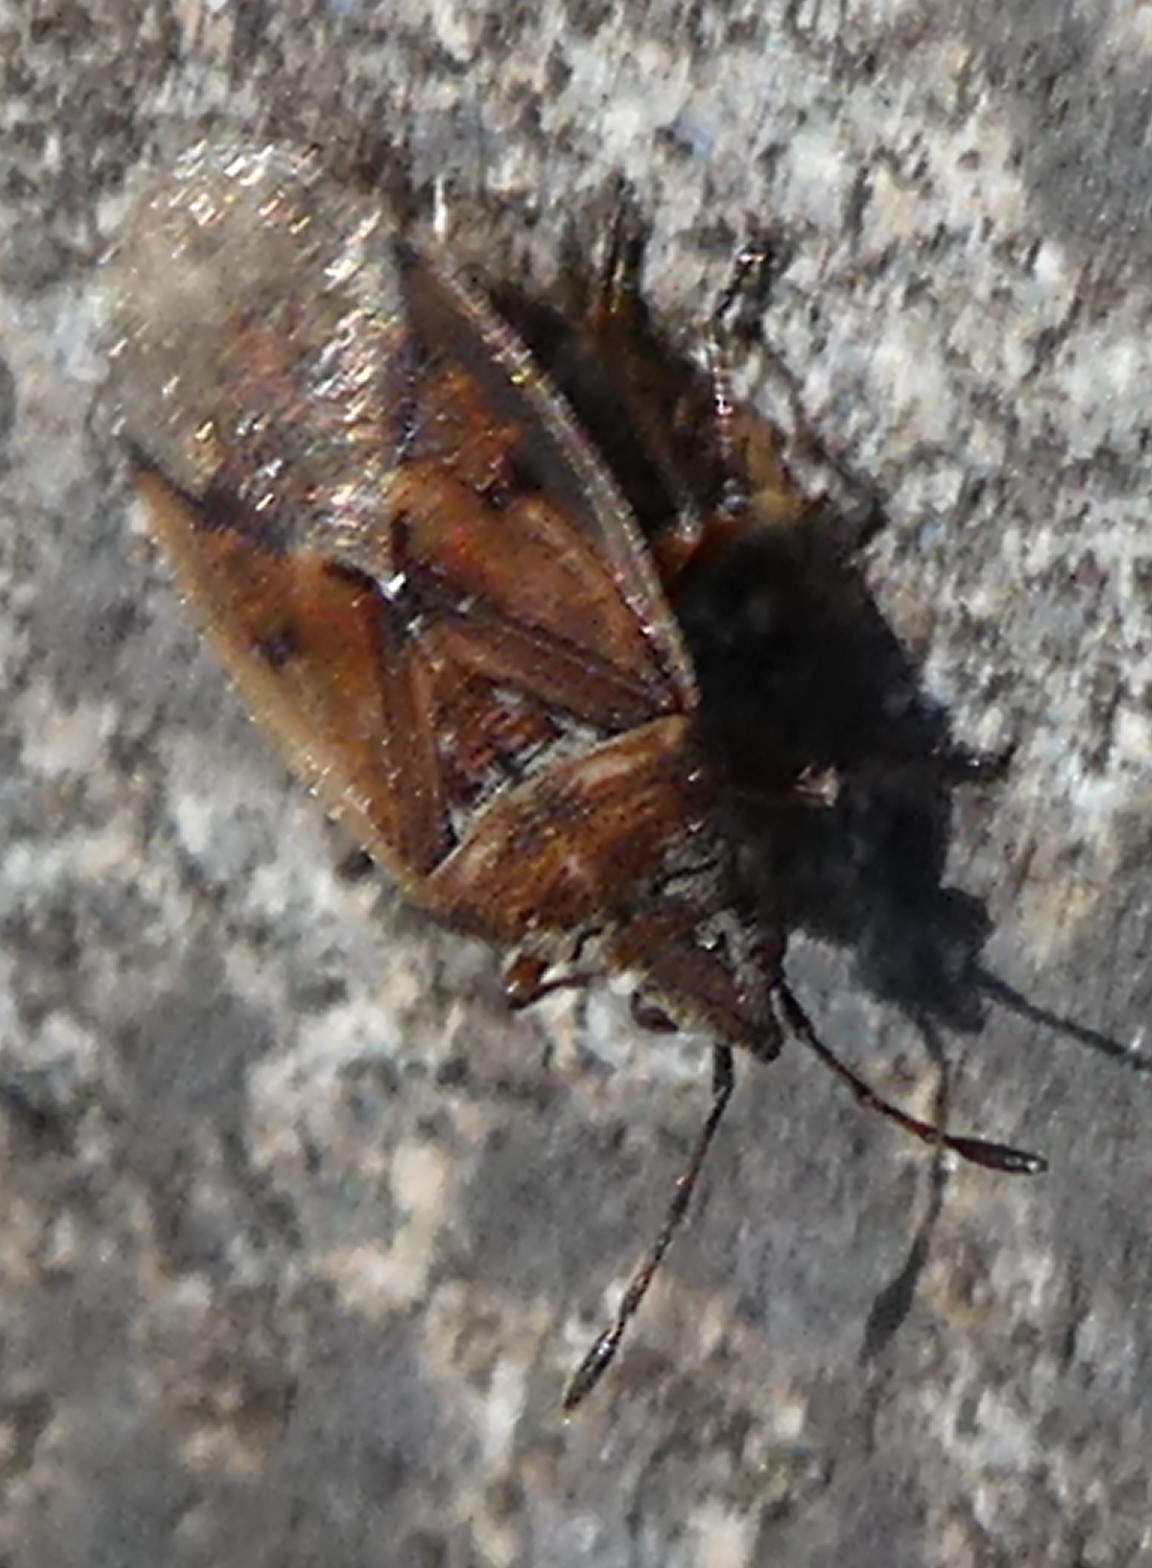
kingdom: Animalia
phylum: Arthropoda
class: Insecta
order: Hemiptera
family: Lygaeidae
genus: Kleidocerys
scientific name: Kleidocerys resedae
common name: Birch catkin bug
